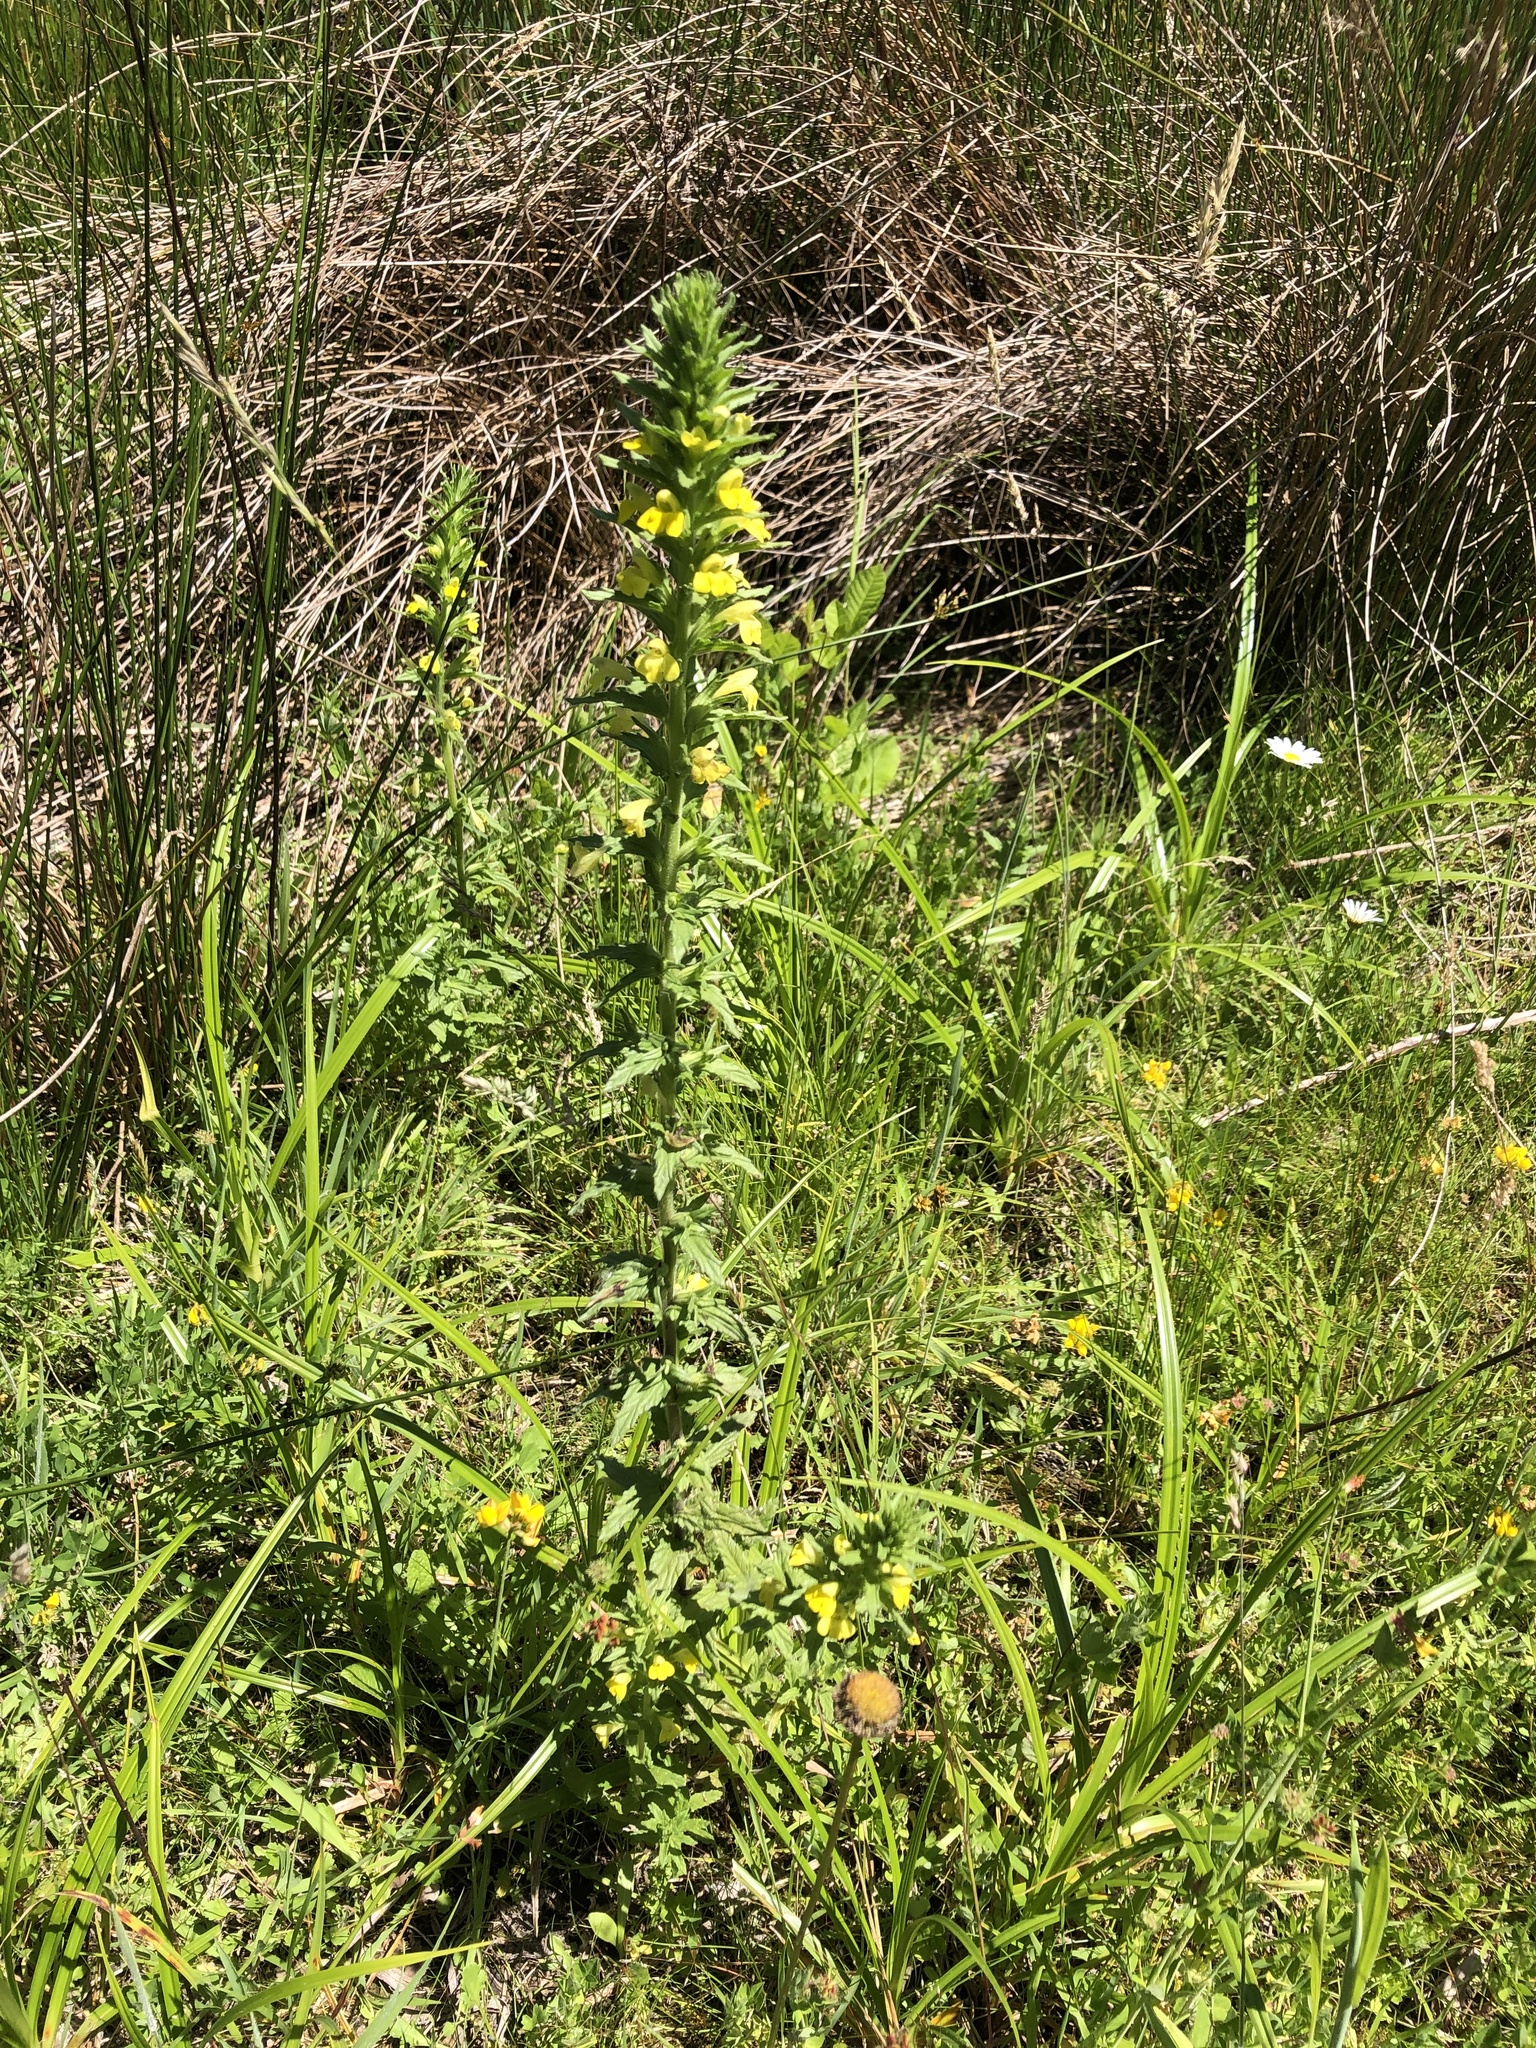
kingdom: Plantae
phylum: Tracheophyta
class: Magnoliopsida
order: Lamiales
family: Orobanchaceae
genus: Bellardia
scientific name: Bellardia viscosa
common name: Sticky parentucellia
